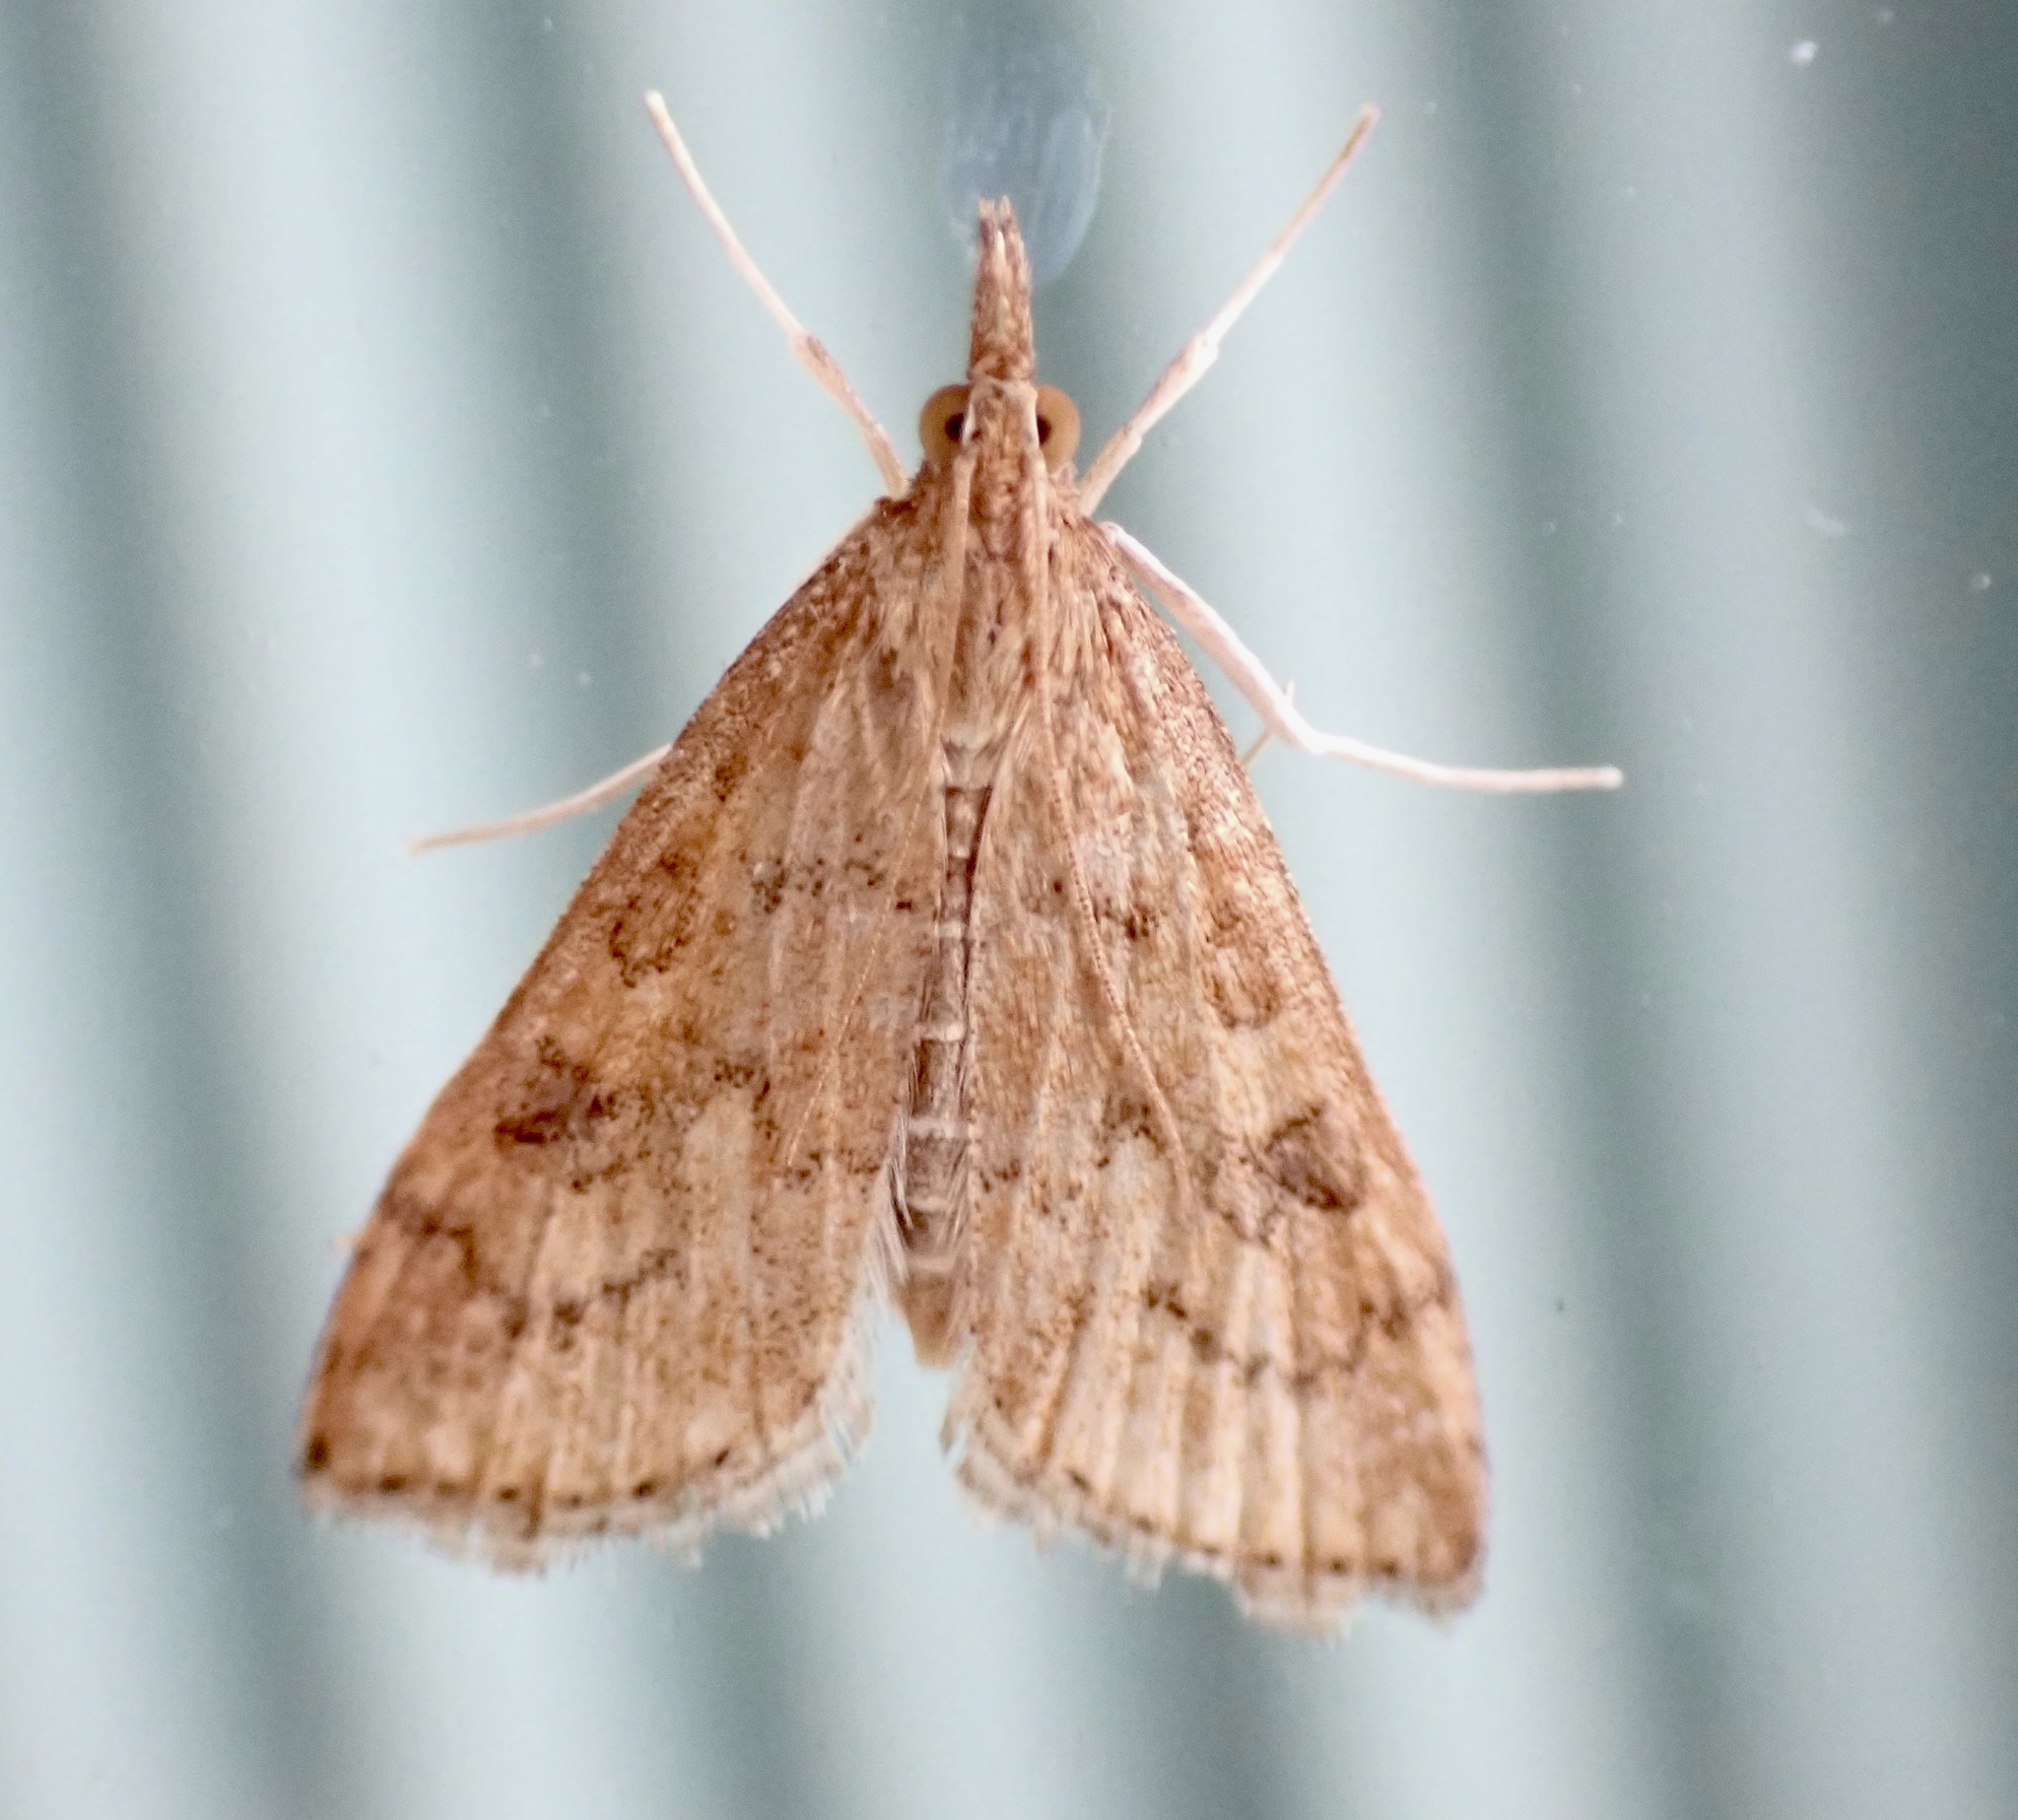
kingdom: Animalia
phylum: Arthropoda
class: Insecta
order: Lepidoptera
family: Crambidae
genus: Udea
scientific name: Udea rubigalis
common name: Celery leaftier moth
